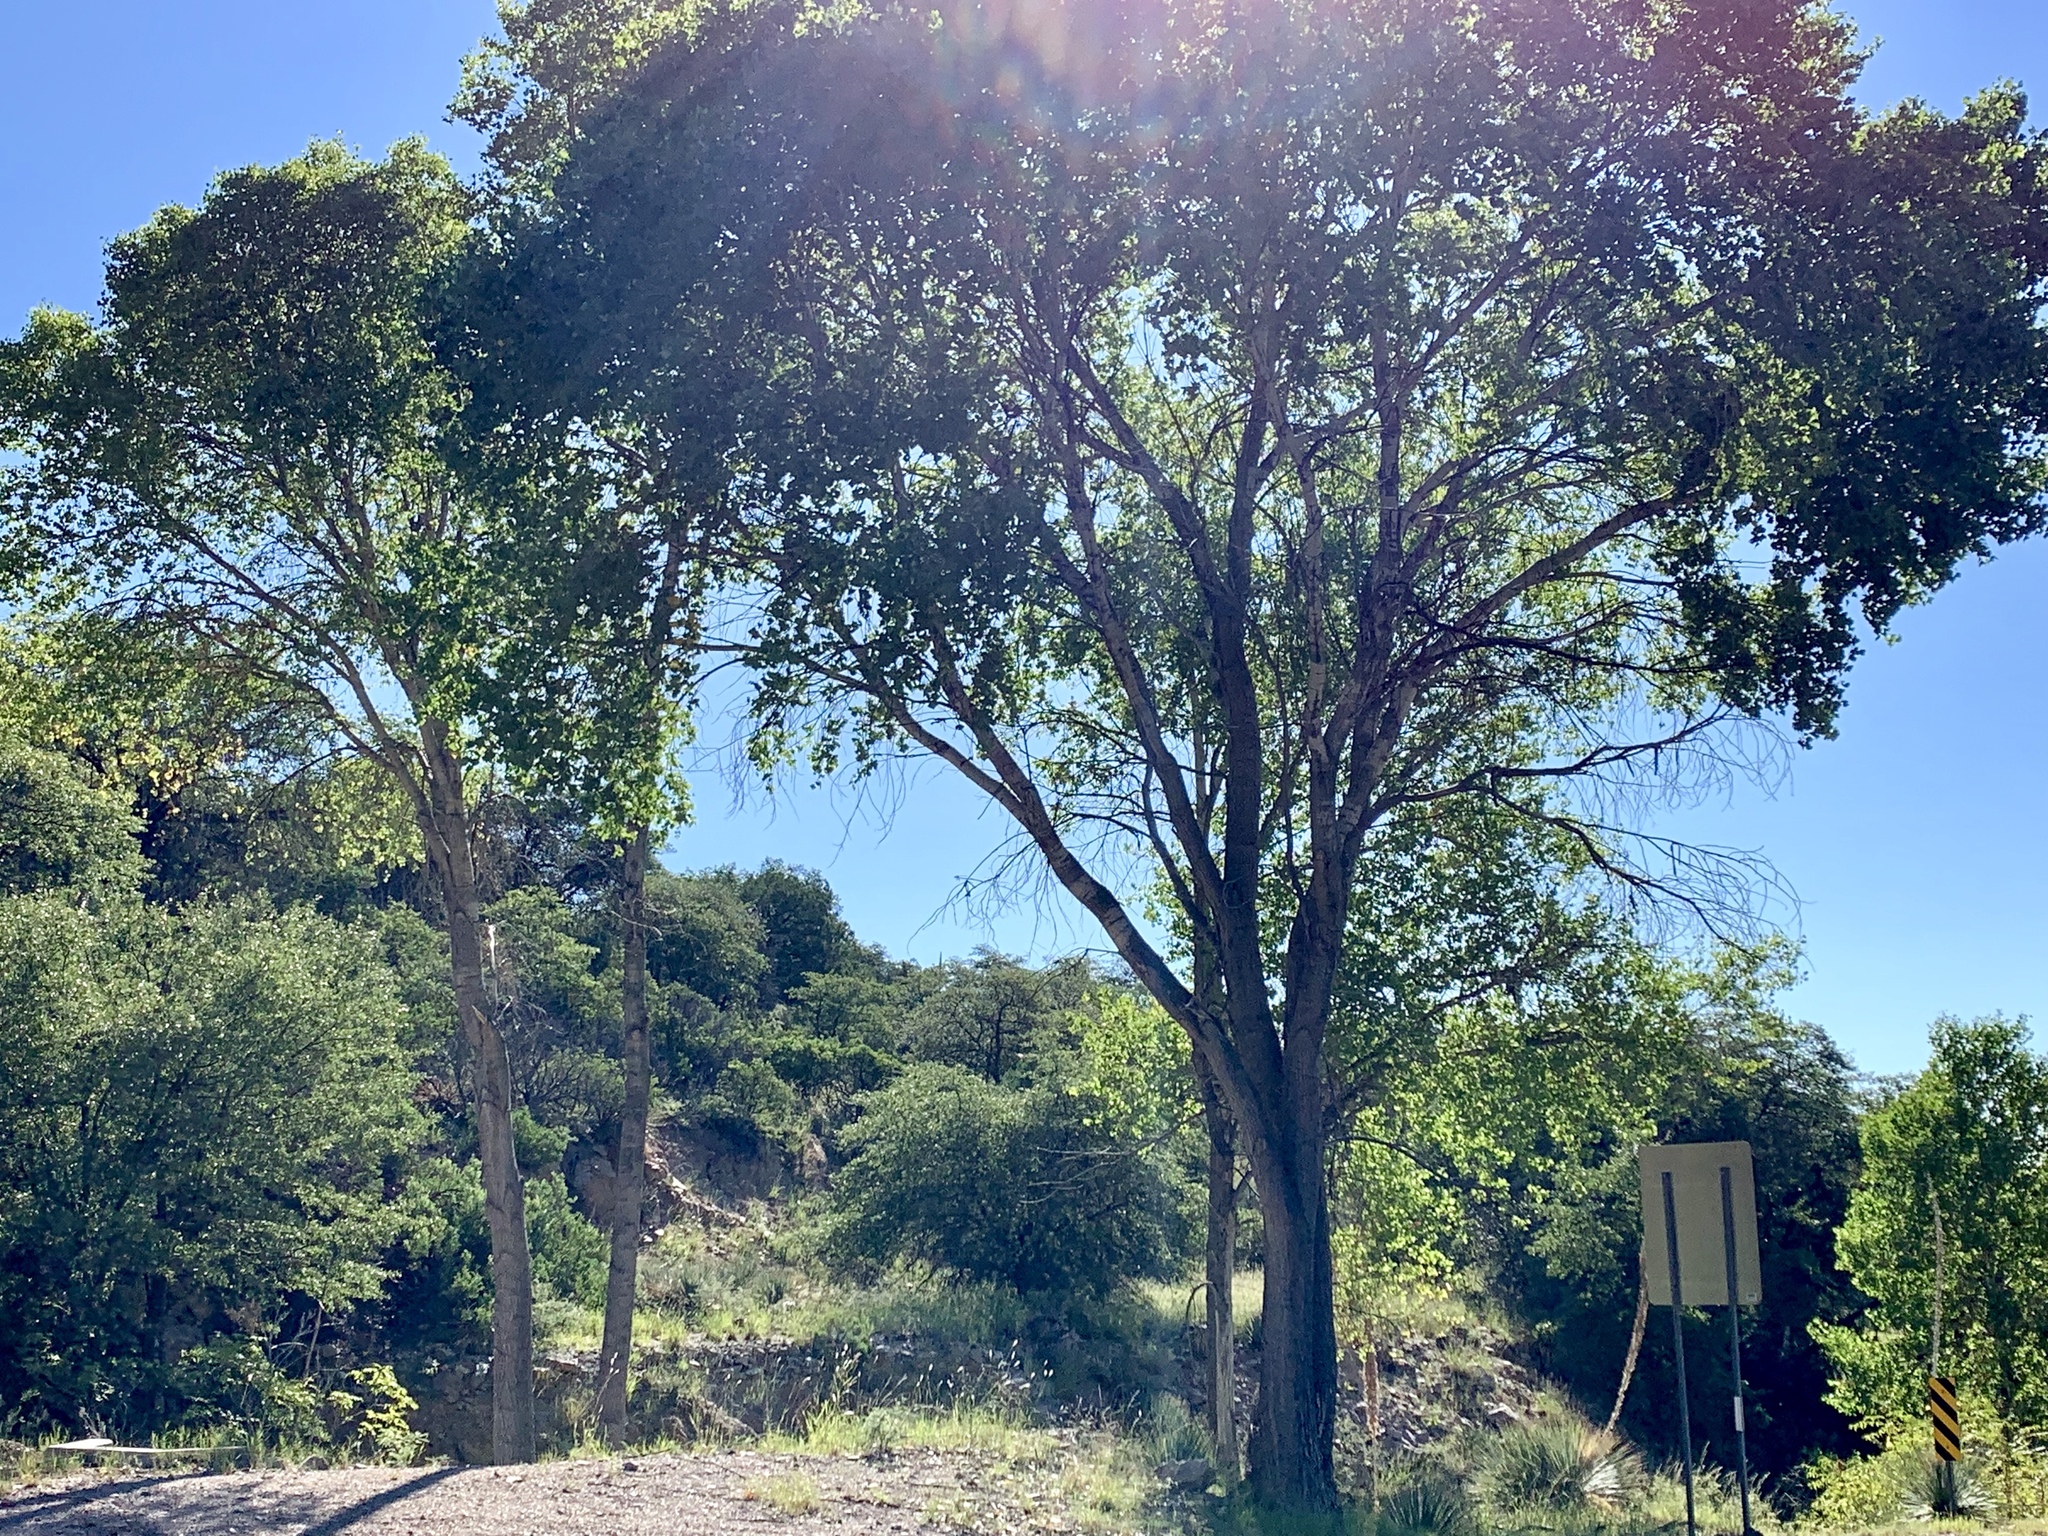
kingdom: Plantae
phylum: Tracheophyta
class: Magnoliopsida
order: Malpighiales
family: Salicaceae
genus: Populus
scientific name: Populus fremontii
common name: Fremont's cottonwood
